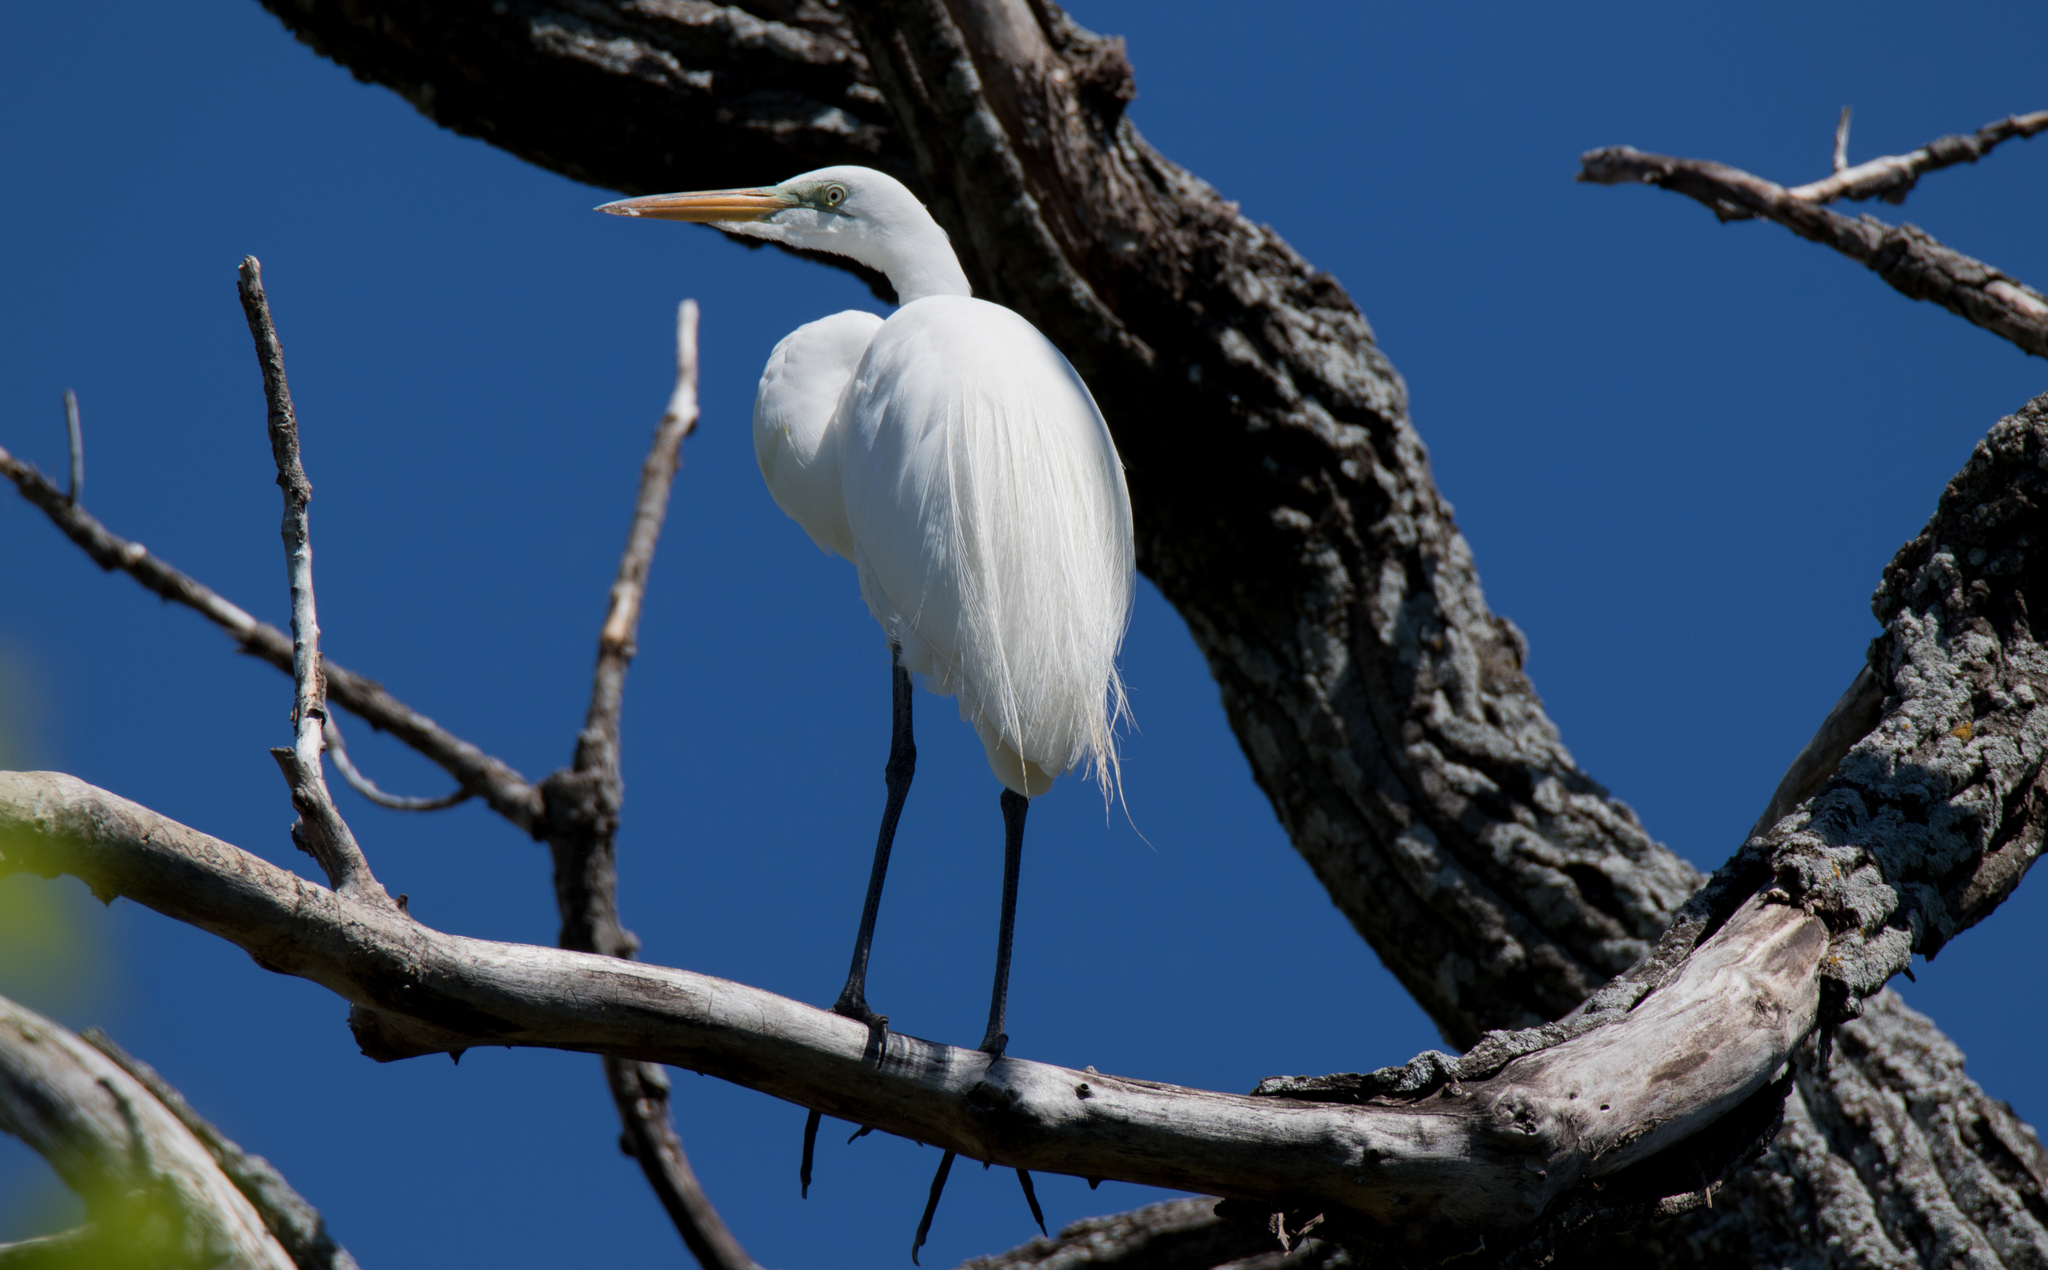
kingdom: Animalia
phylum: Chordata
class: Aves
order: Pelecaniformes
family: Ardeidae
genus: Ardea
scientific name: Ardea alba
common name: Great egret
